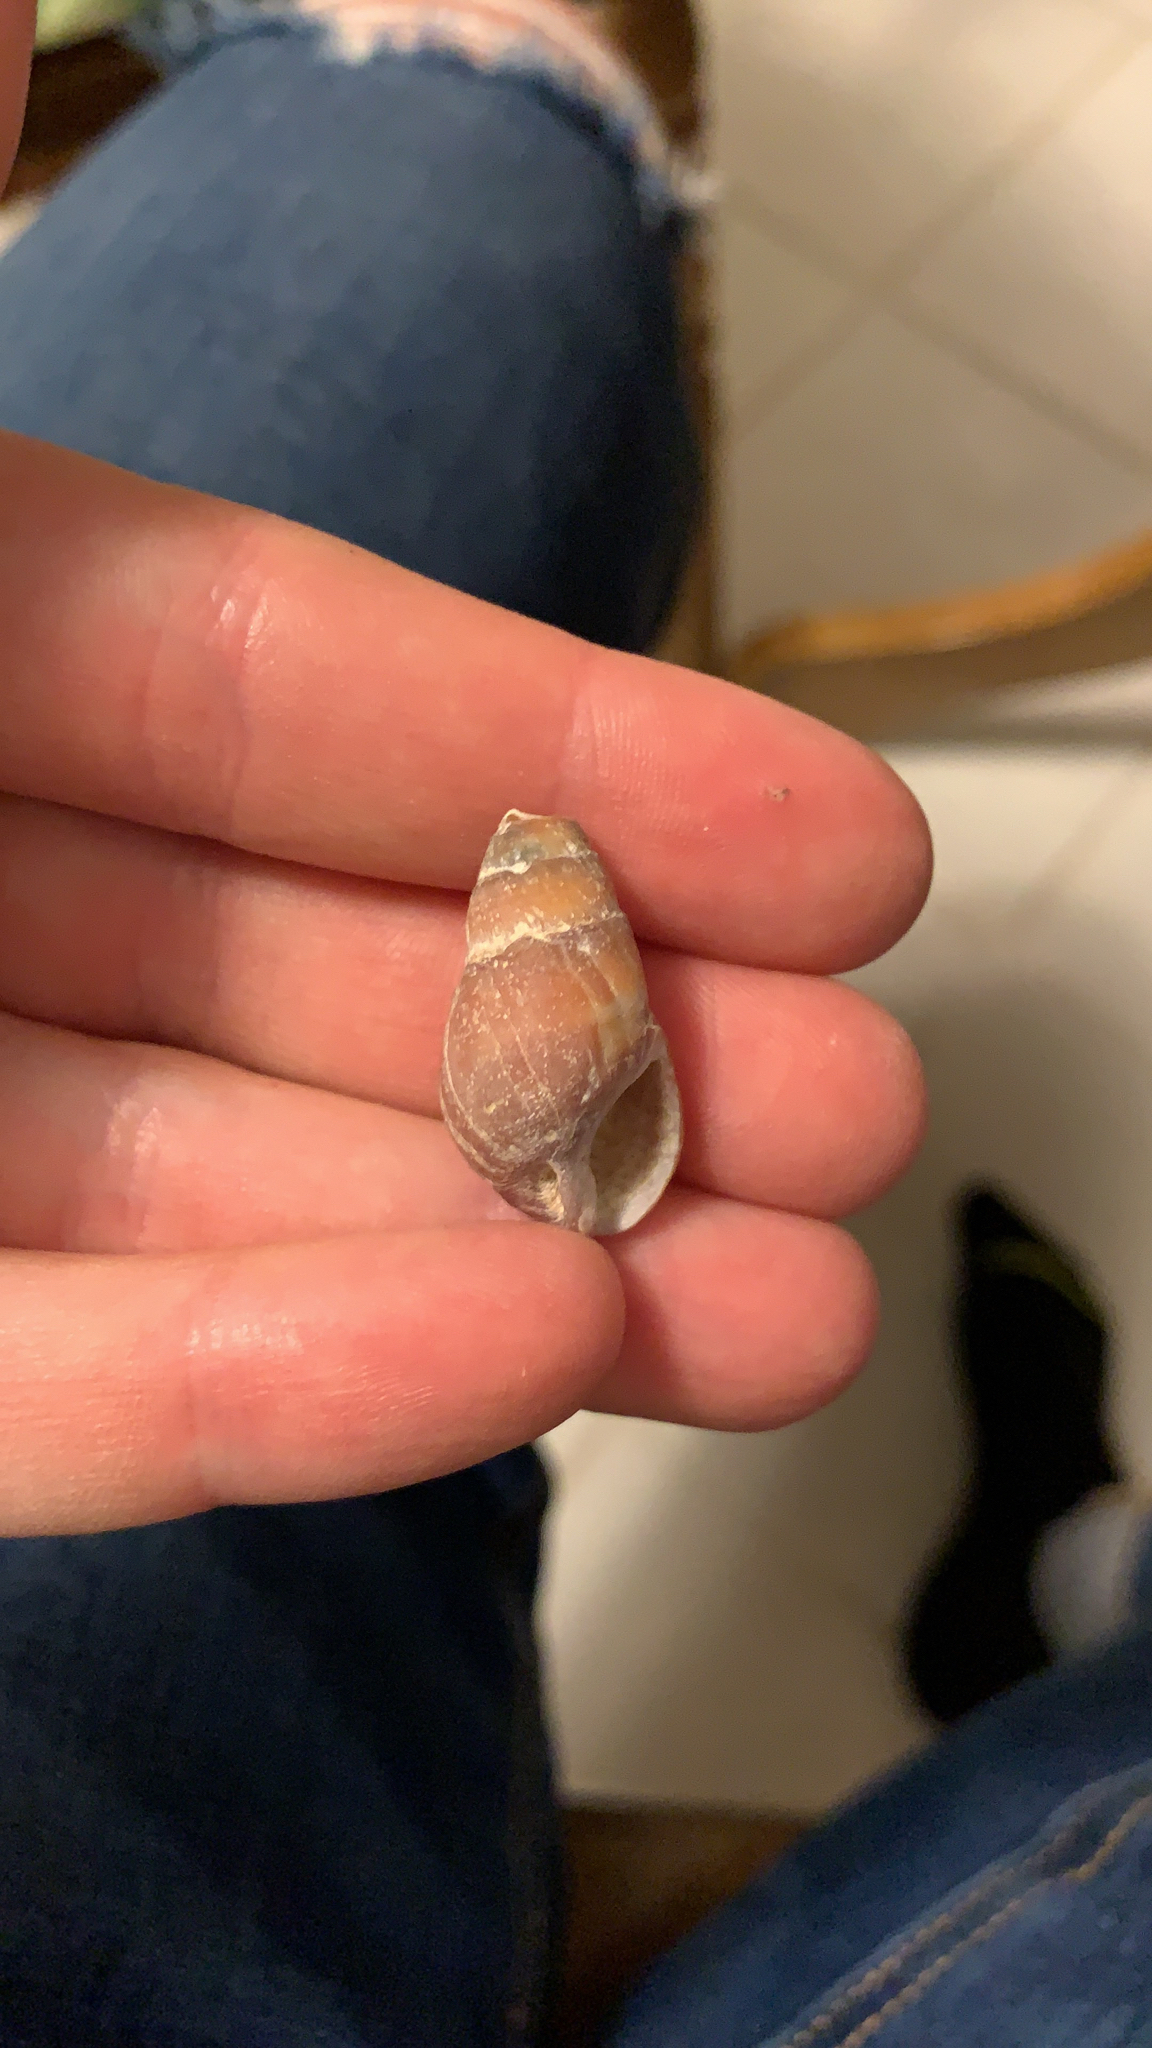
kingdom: Animalia
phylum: Mollusca
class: Gastropoda
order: Neogastropoda
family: Nassariidae
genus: Ilyanassa
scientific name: Ilyanassa obsoleta
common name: Eastern mudsnail
